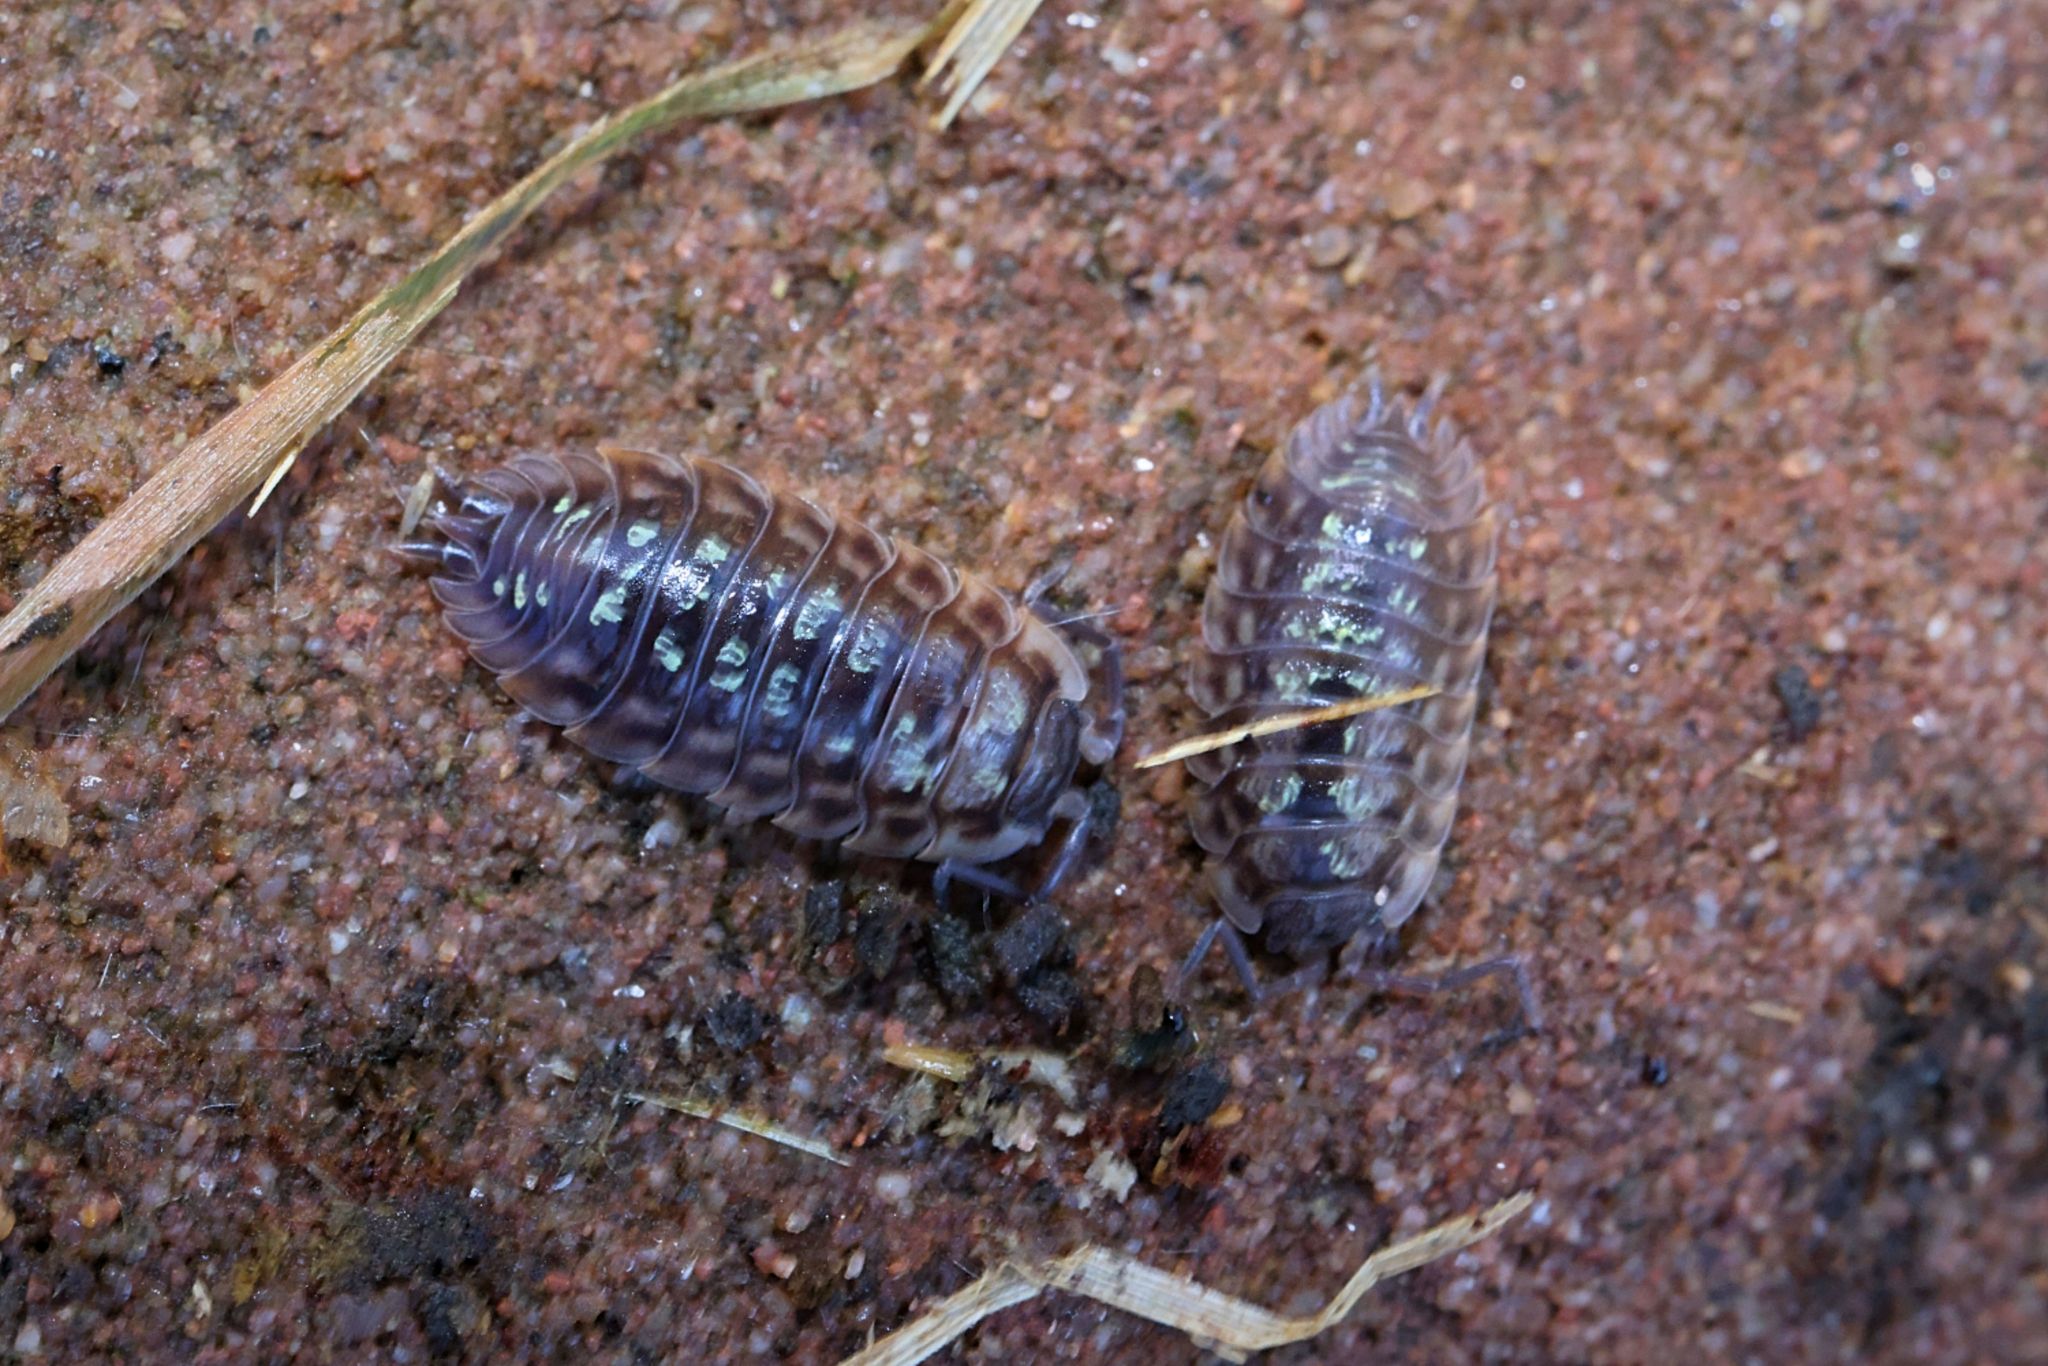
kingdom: Animalia
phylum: Arthropoda
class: Malacostraca
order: Isopoda
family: Oniscidae
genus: Oniscus
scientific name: Oniscus asellus
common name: Common shiny woodlouse
